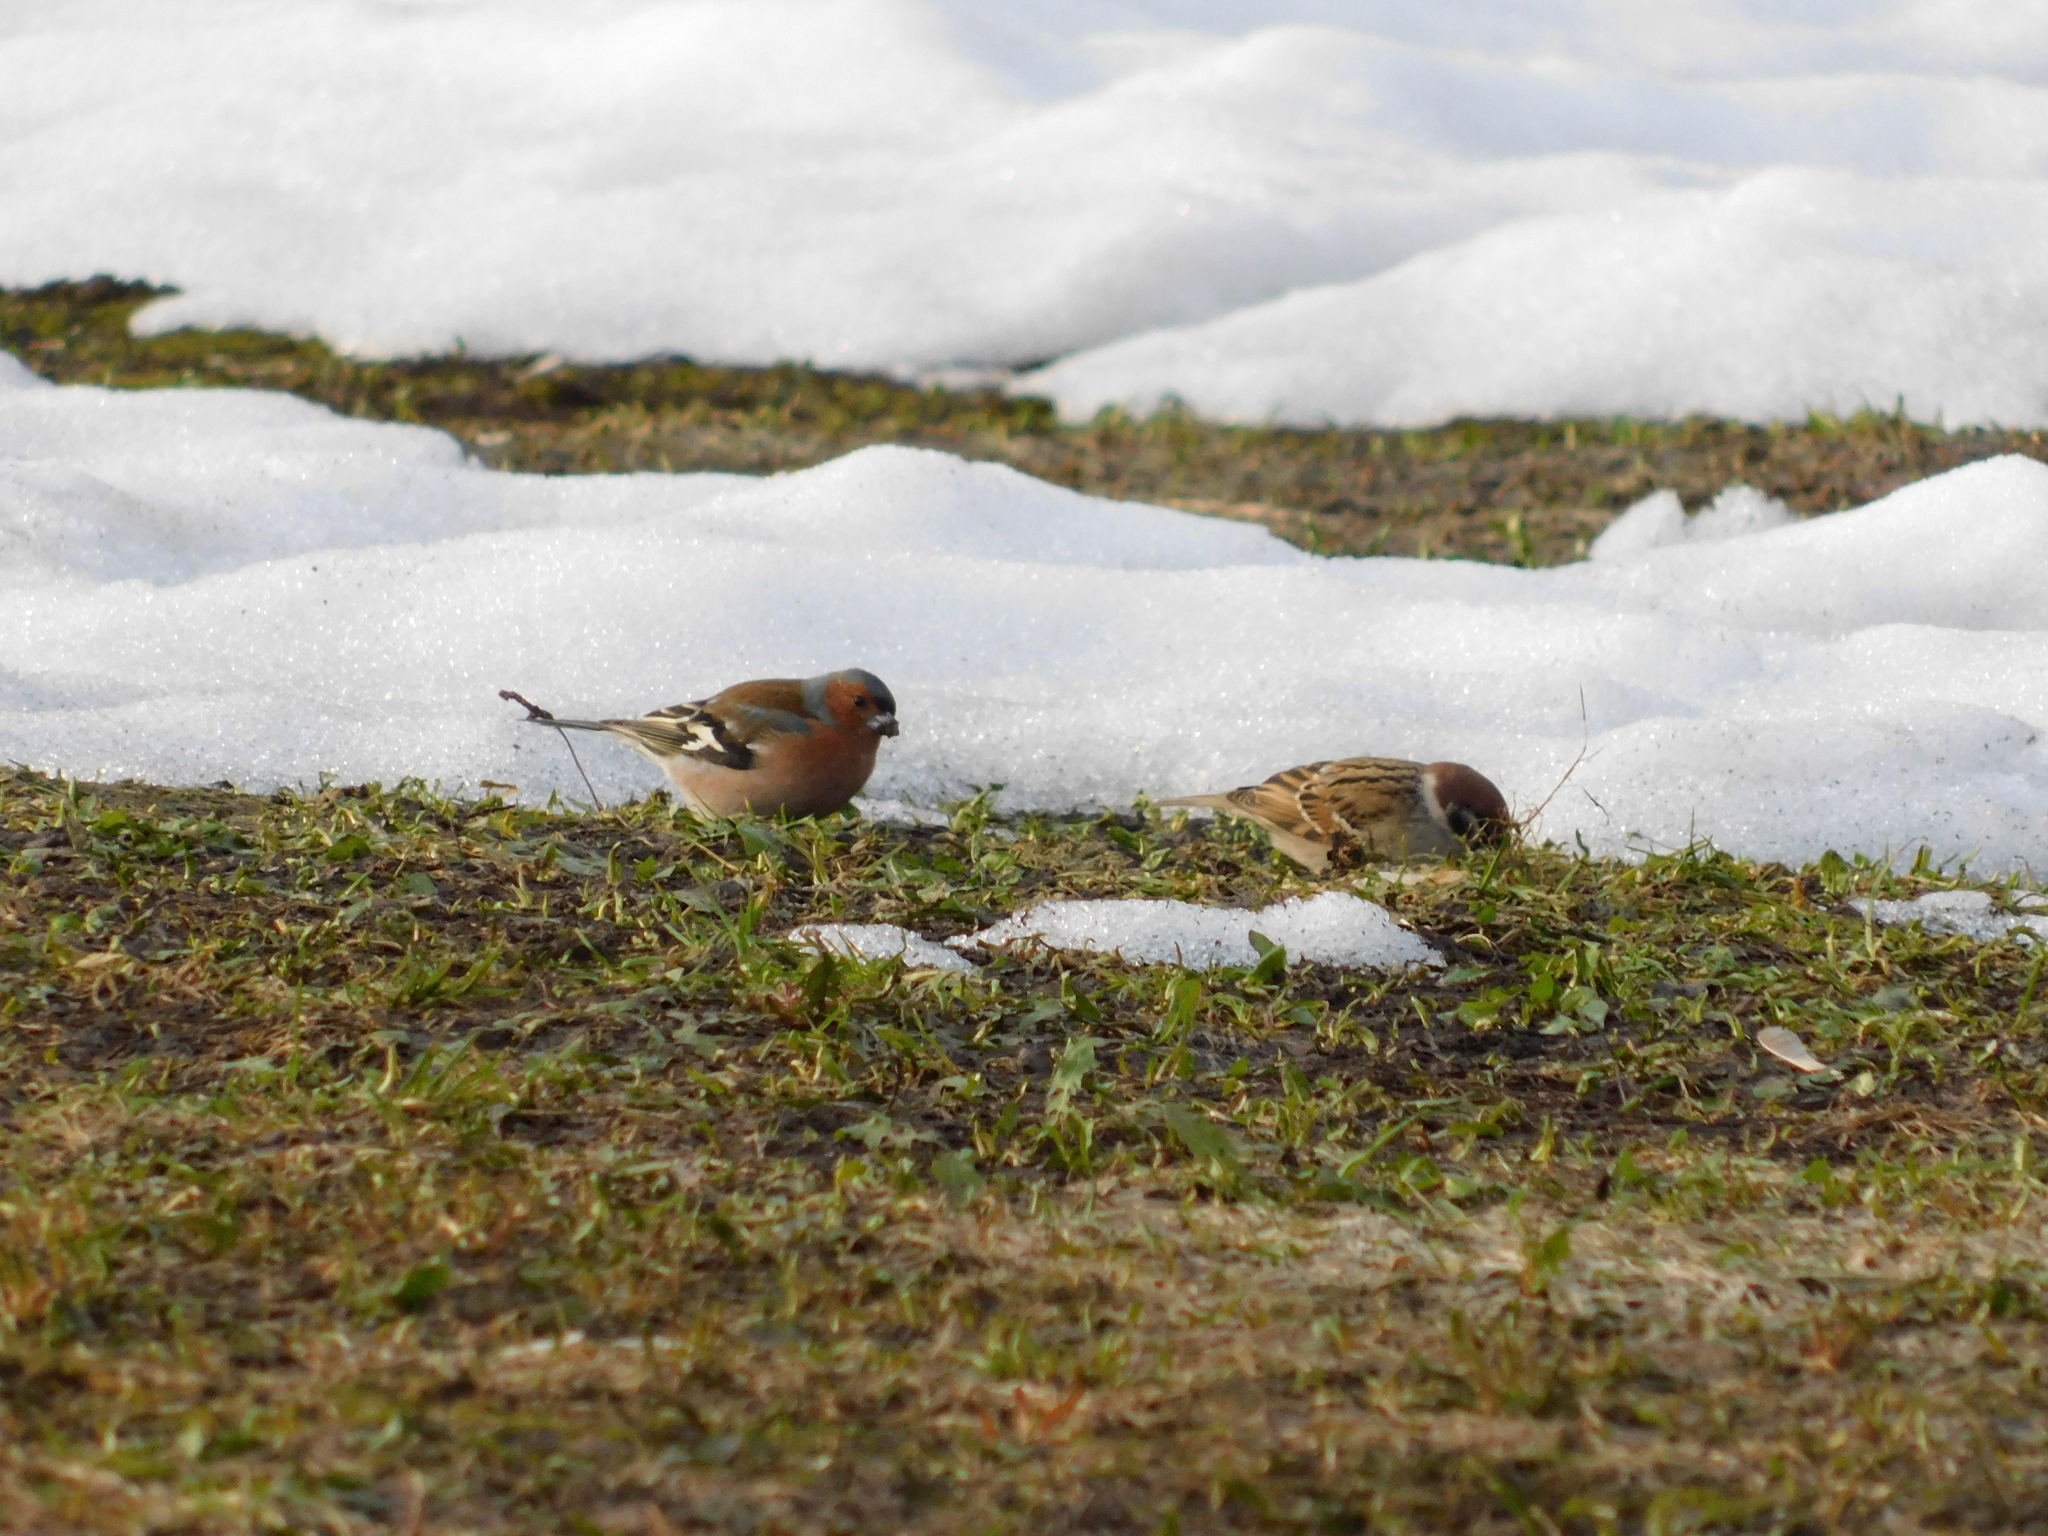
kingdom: Animalia
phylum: Chordata
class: Aves
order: Passeriformes
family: Passeridae
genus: Passer
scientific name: Passer montanus
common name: Eurasian tree sparrow
